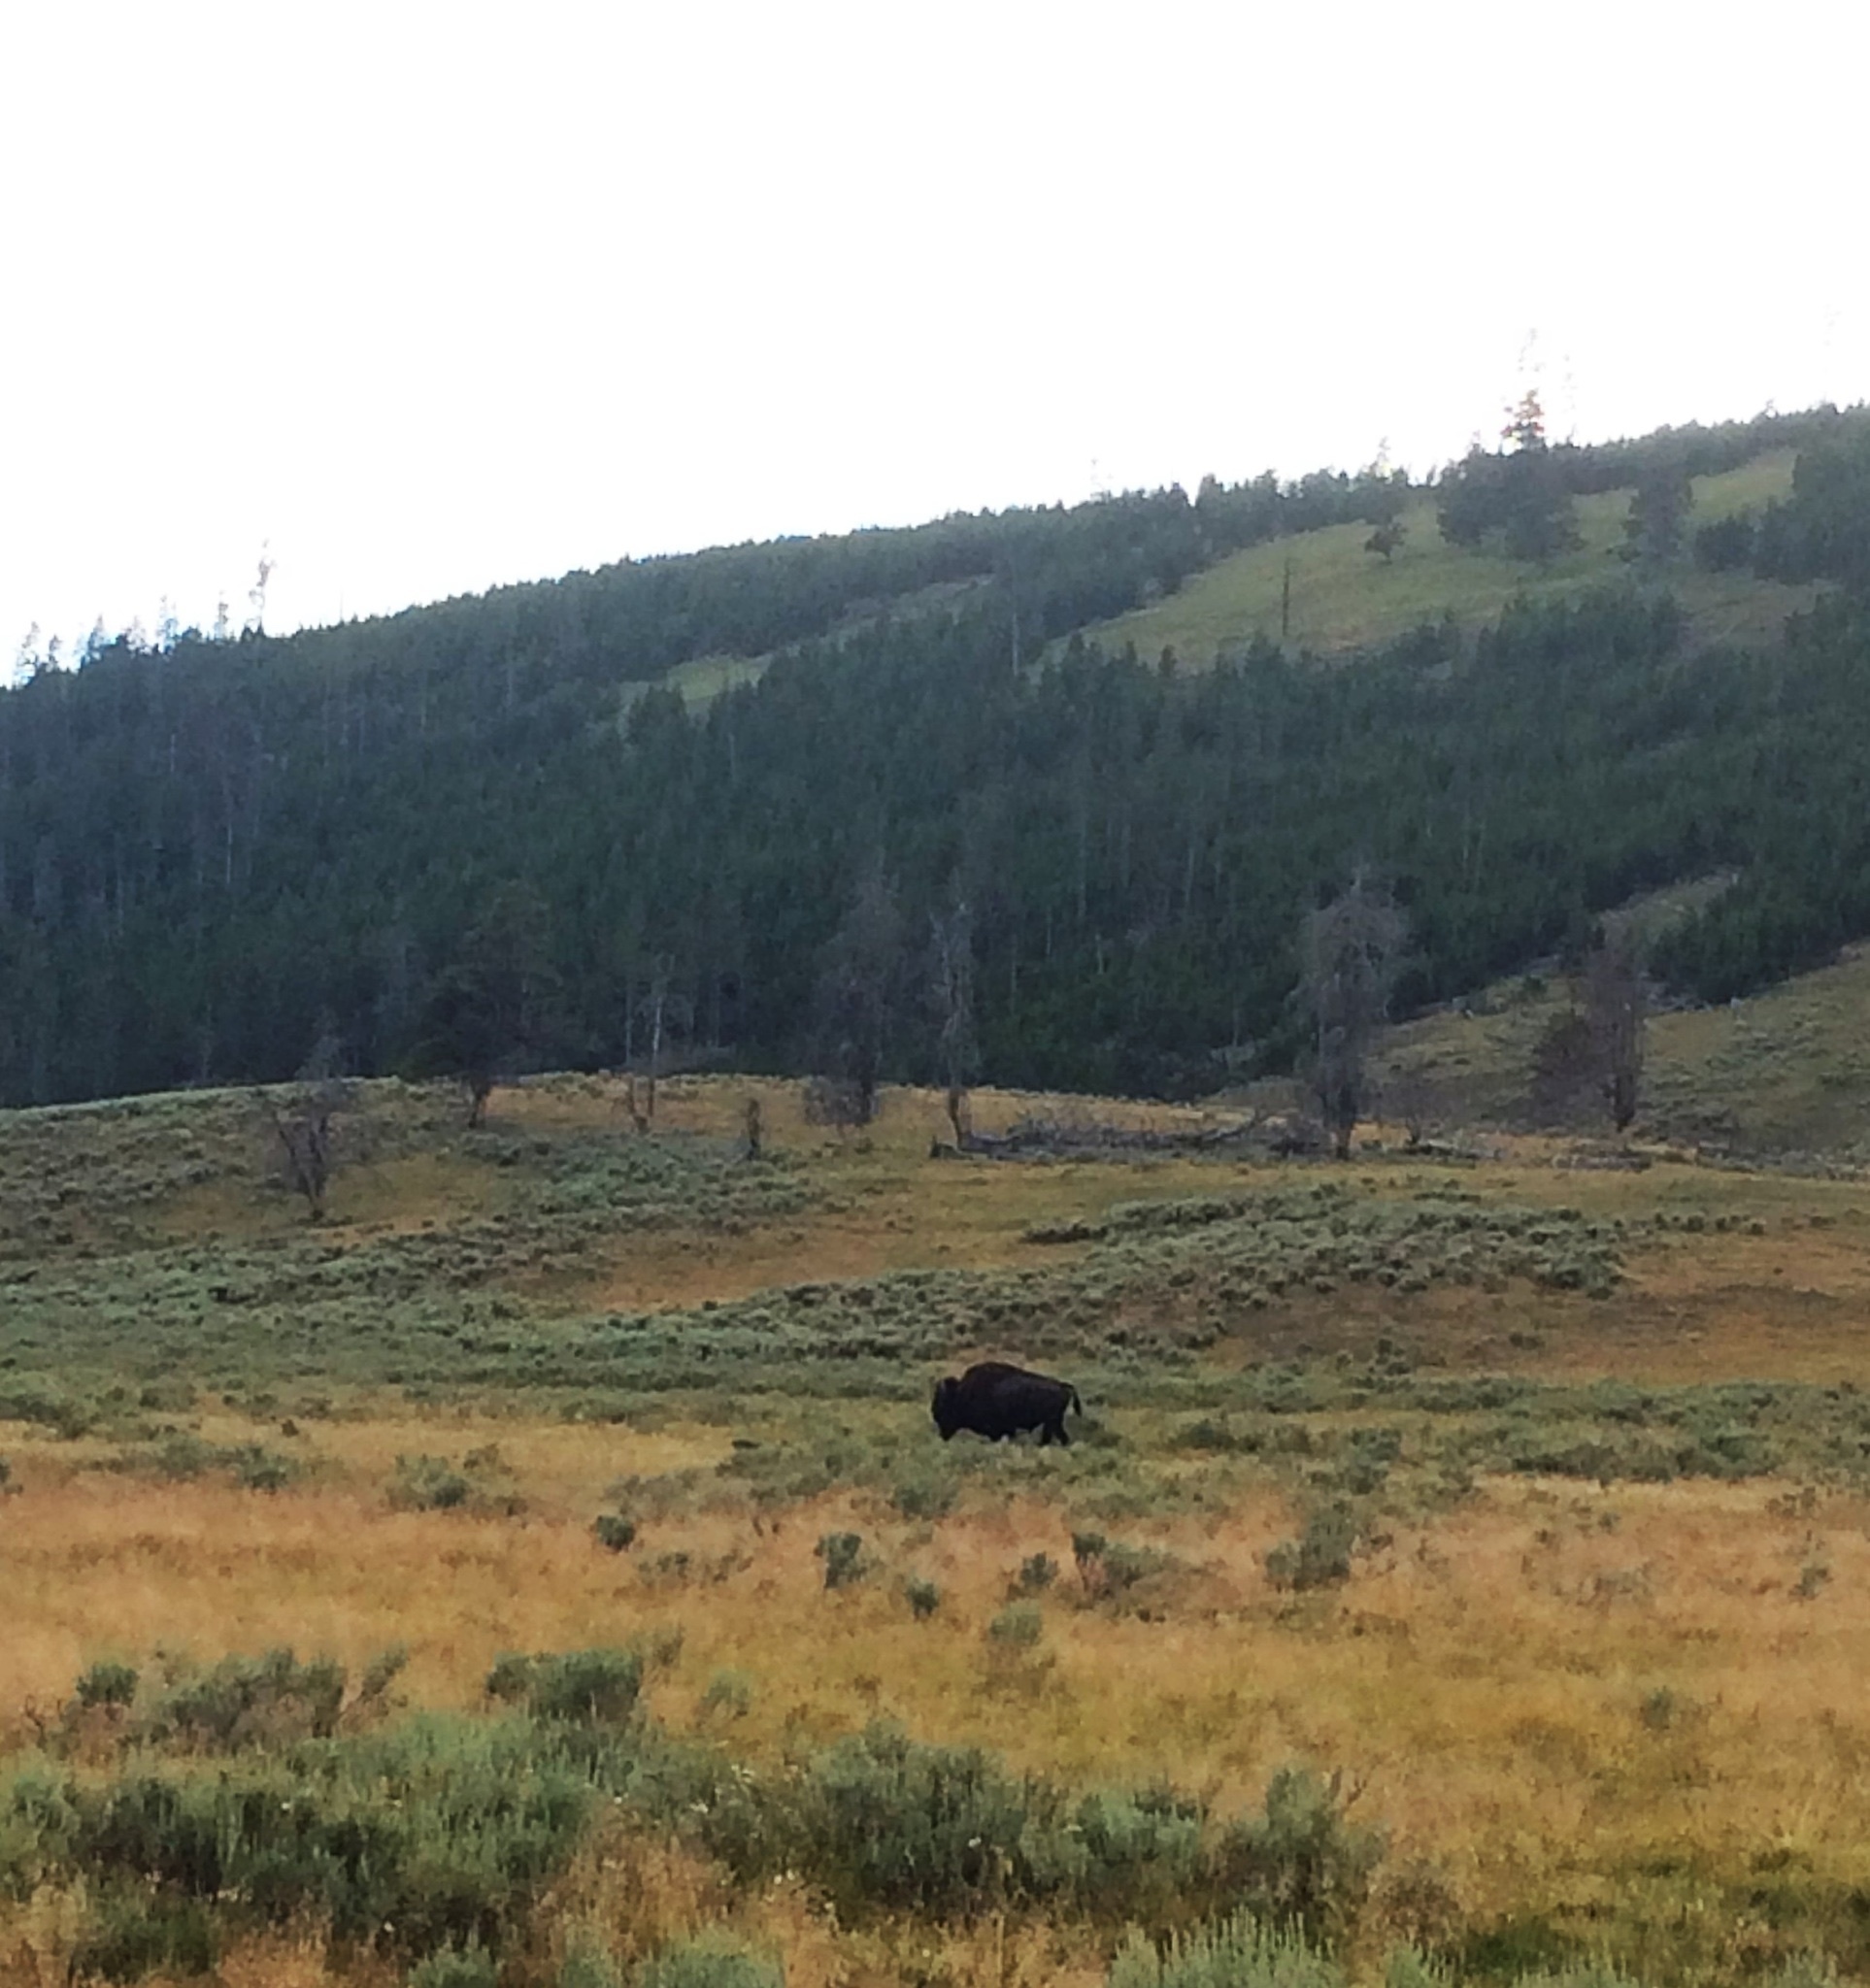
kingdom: Animalia
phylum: Chordata
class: Mammalia
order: Artiodactyla
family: Bovidae
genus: Bison
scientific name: Bison bison
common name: American bison
